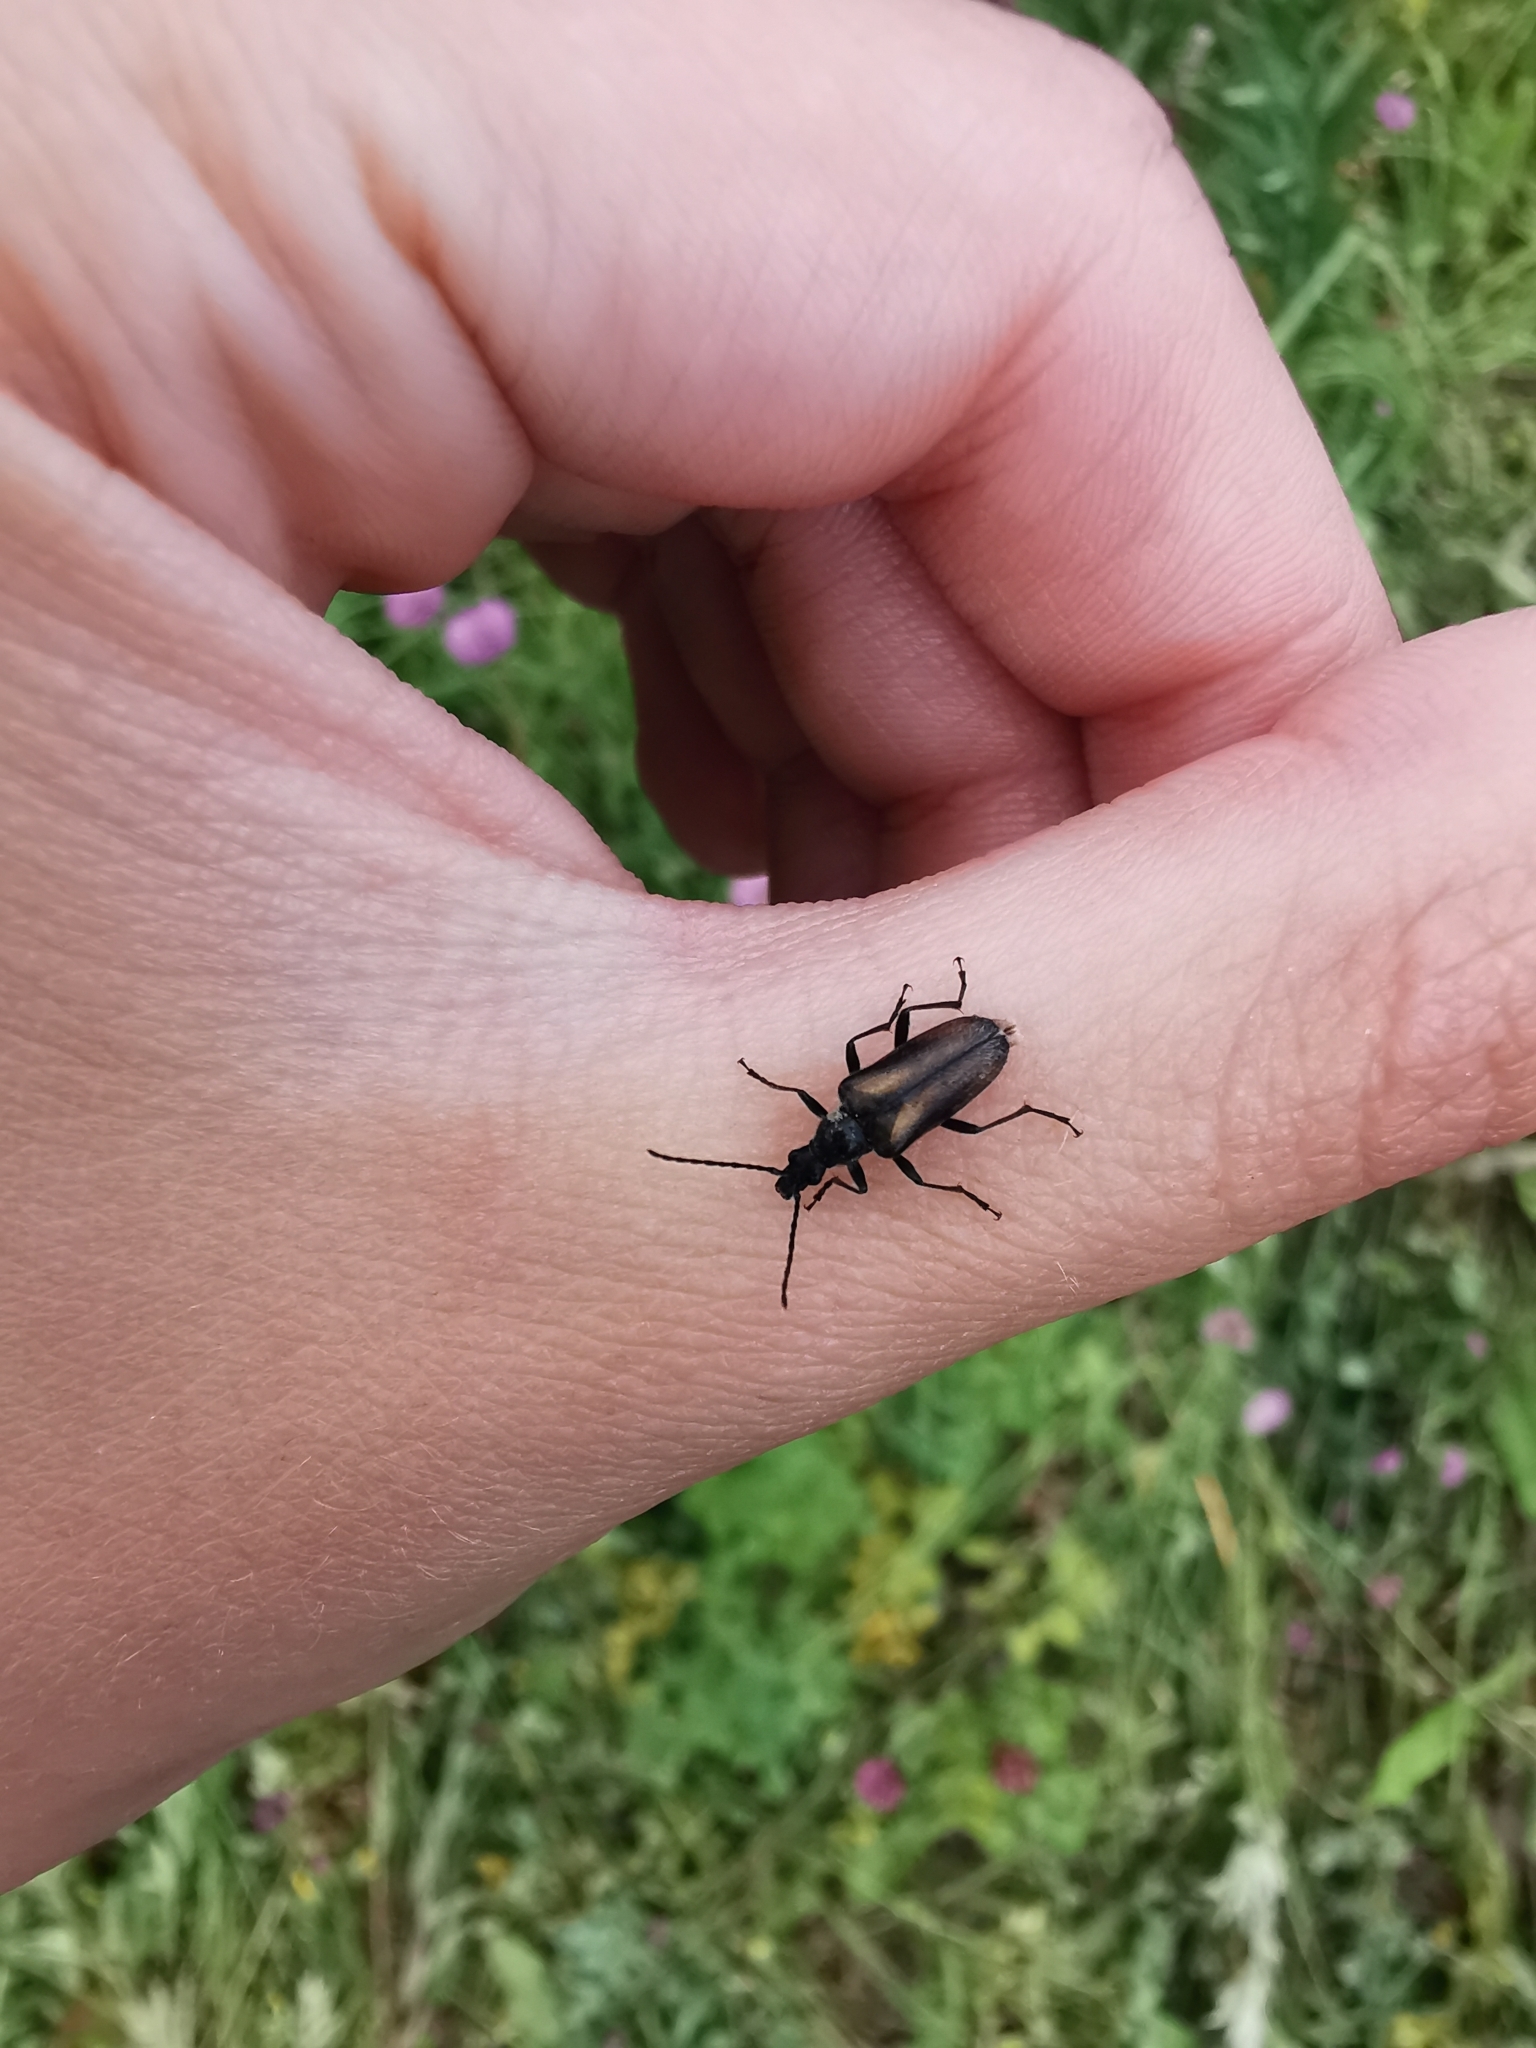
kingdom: Animalia
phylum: Arthropoda
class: Insecta
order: Coleoptera
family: Cerambycidae
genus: Gnathacmaeops
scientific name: Gnathacmaeops pratensis
